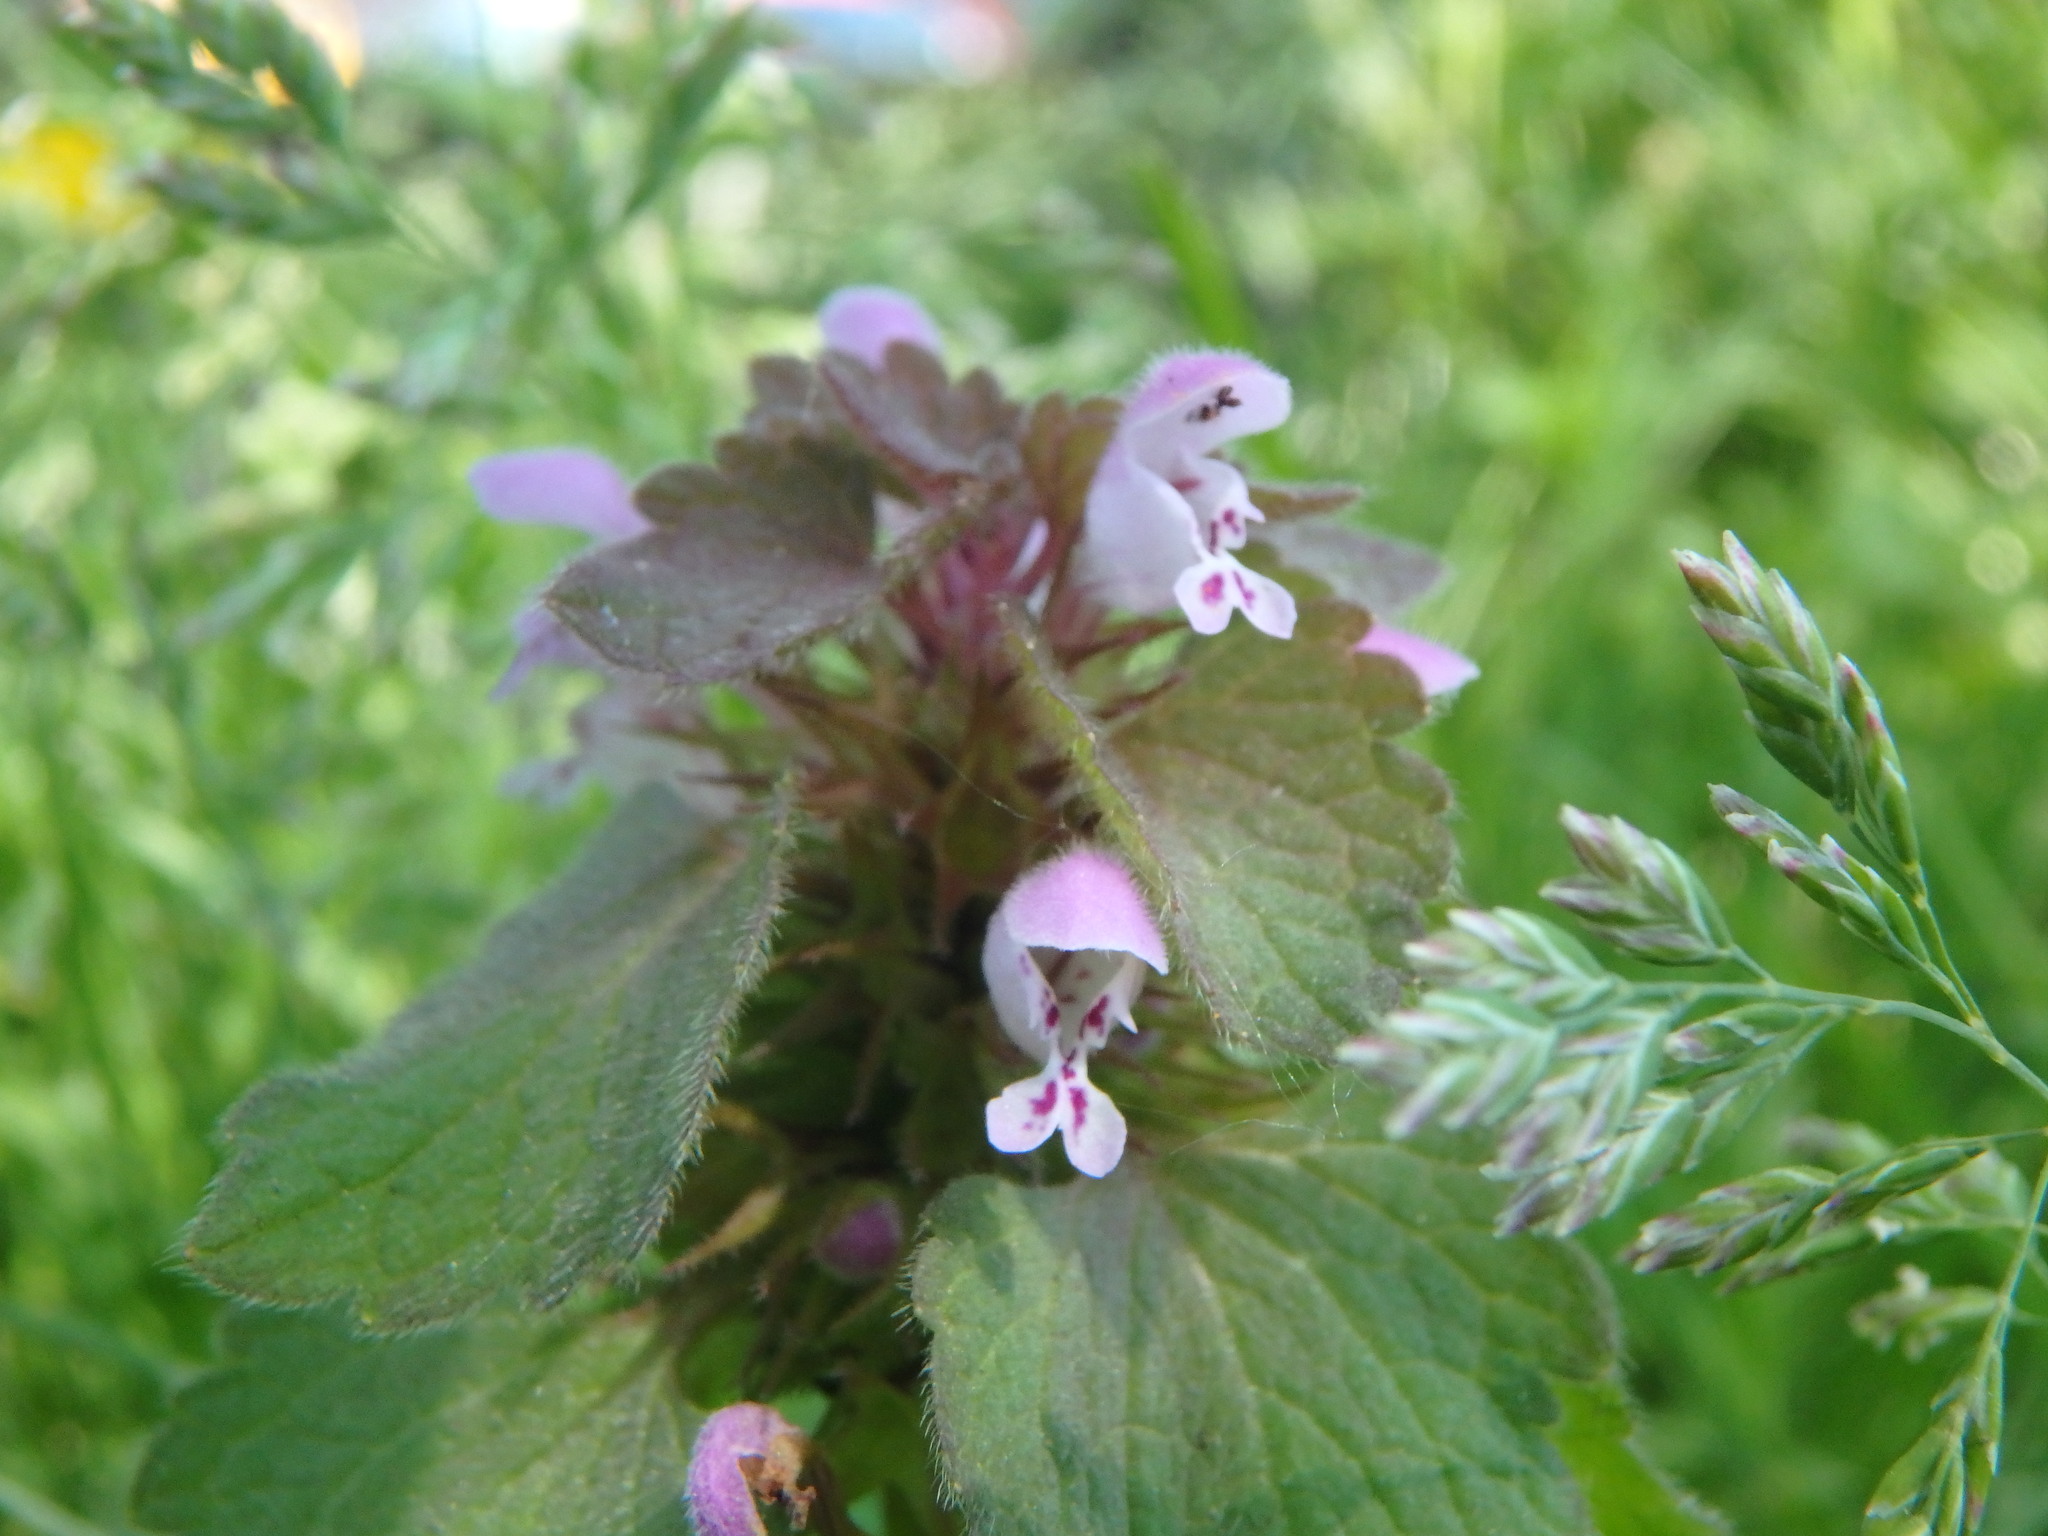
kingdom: Plantae
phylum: Tracheophyta
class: Magnoliopsida
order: Lamiales
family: Lamiaceae
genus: Lamium
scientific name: Lamium purpureum
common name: Red dead-nettle
